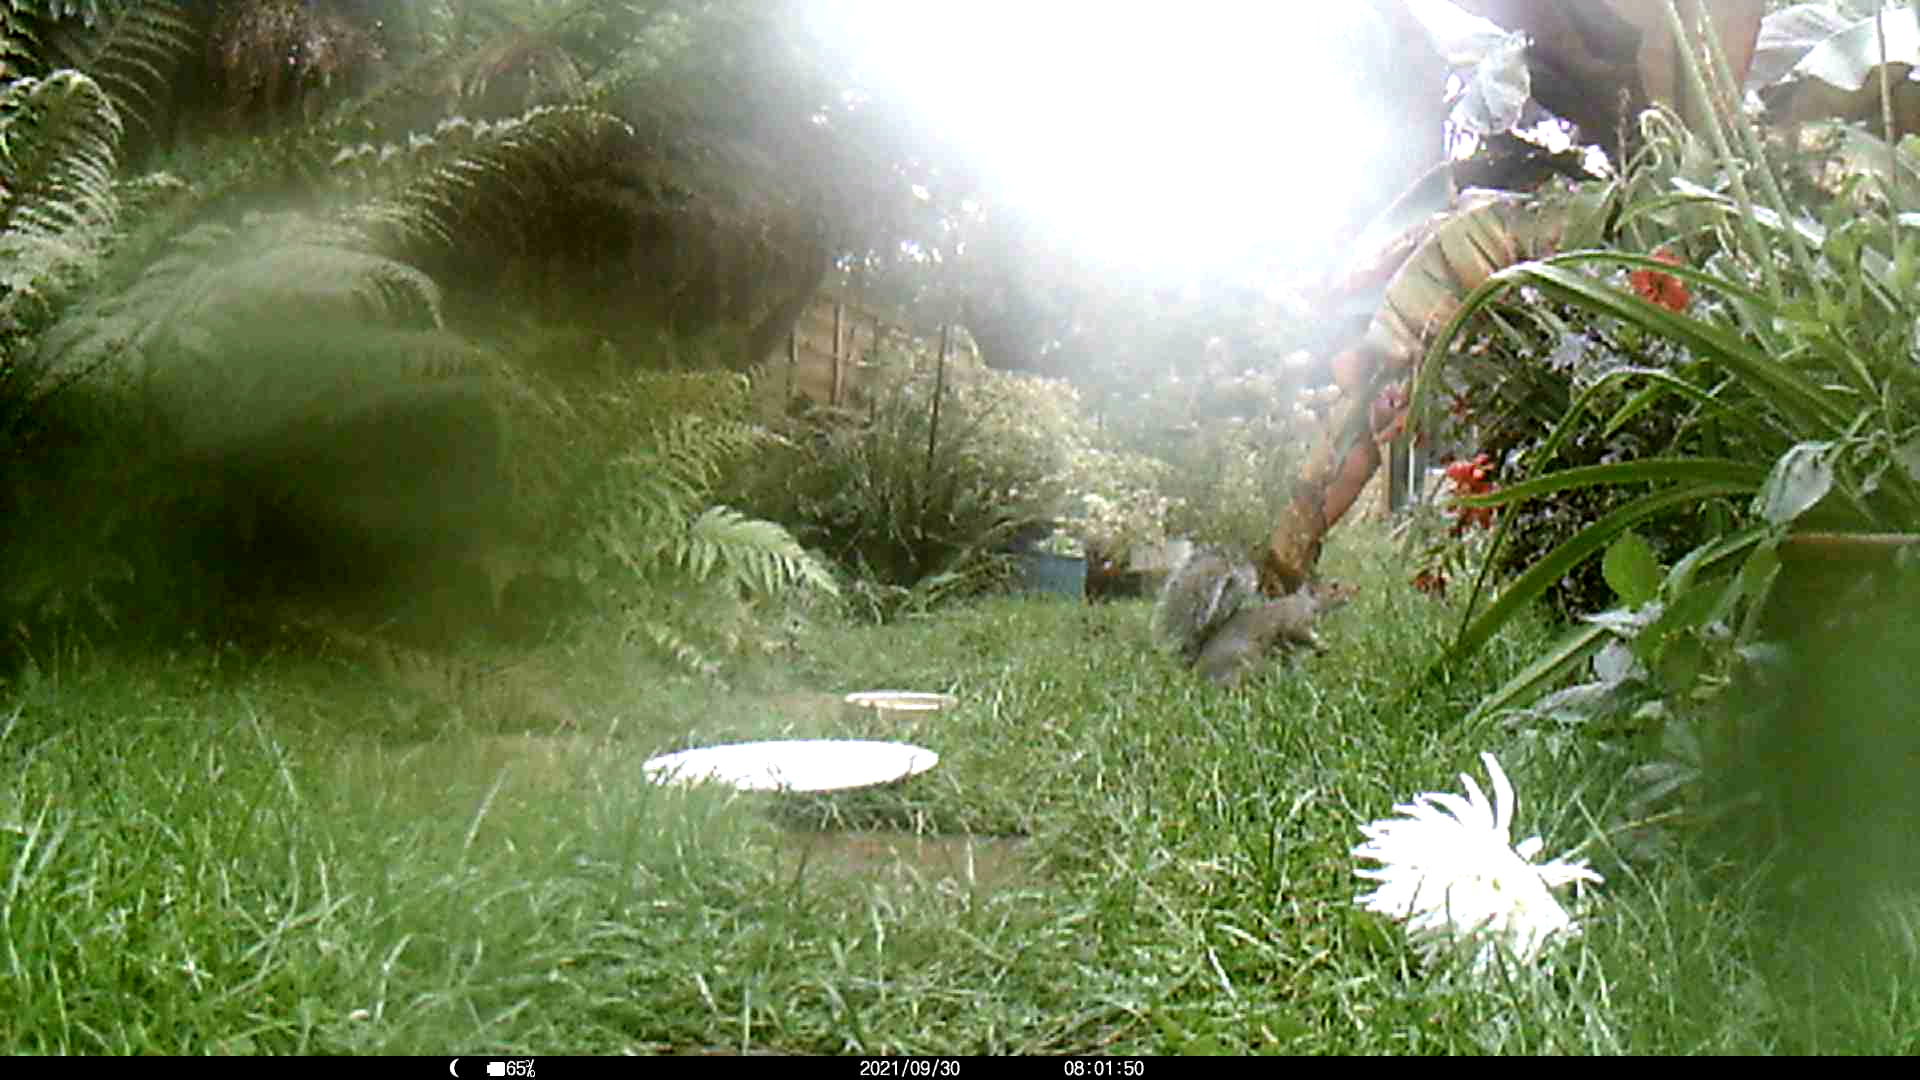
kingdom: Animalia
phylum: Chordata
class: Mammalia
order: Rodentia
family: Sciuridae
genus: Sciurus
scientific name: Sciurus carolinensis
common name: Eastern gray squirrel
